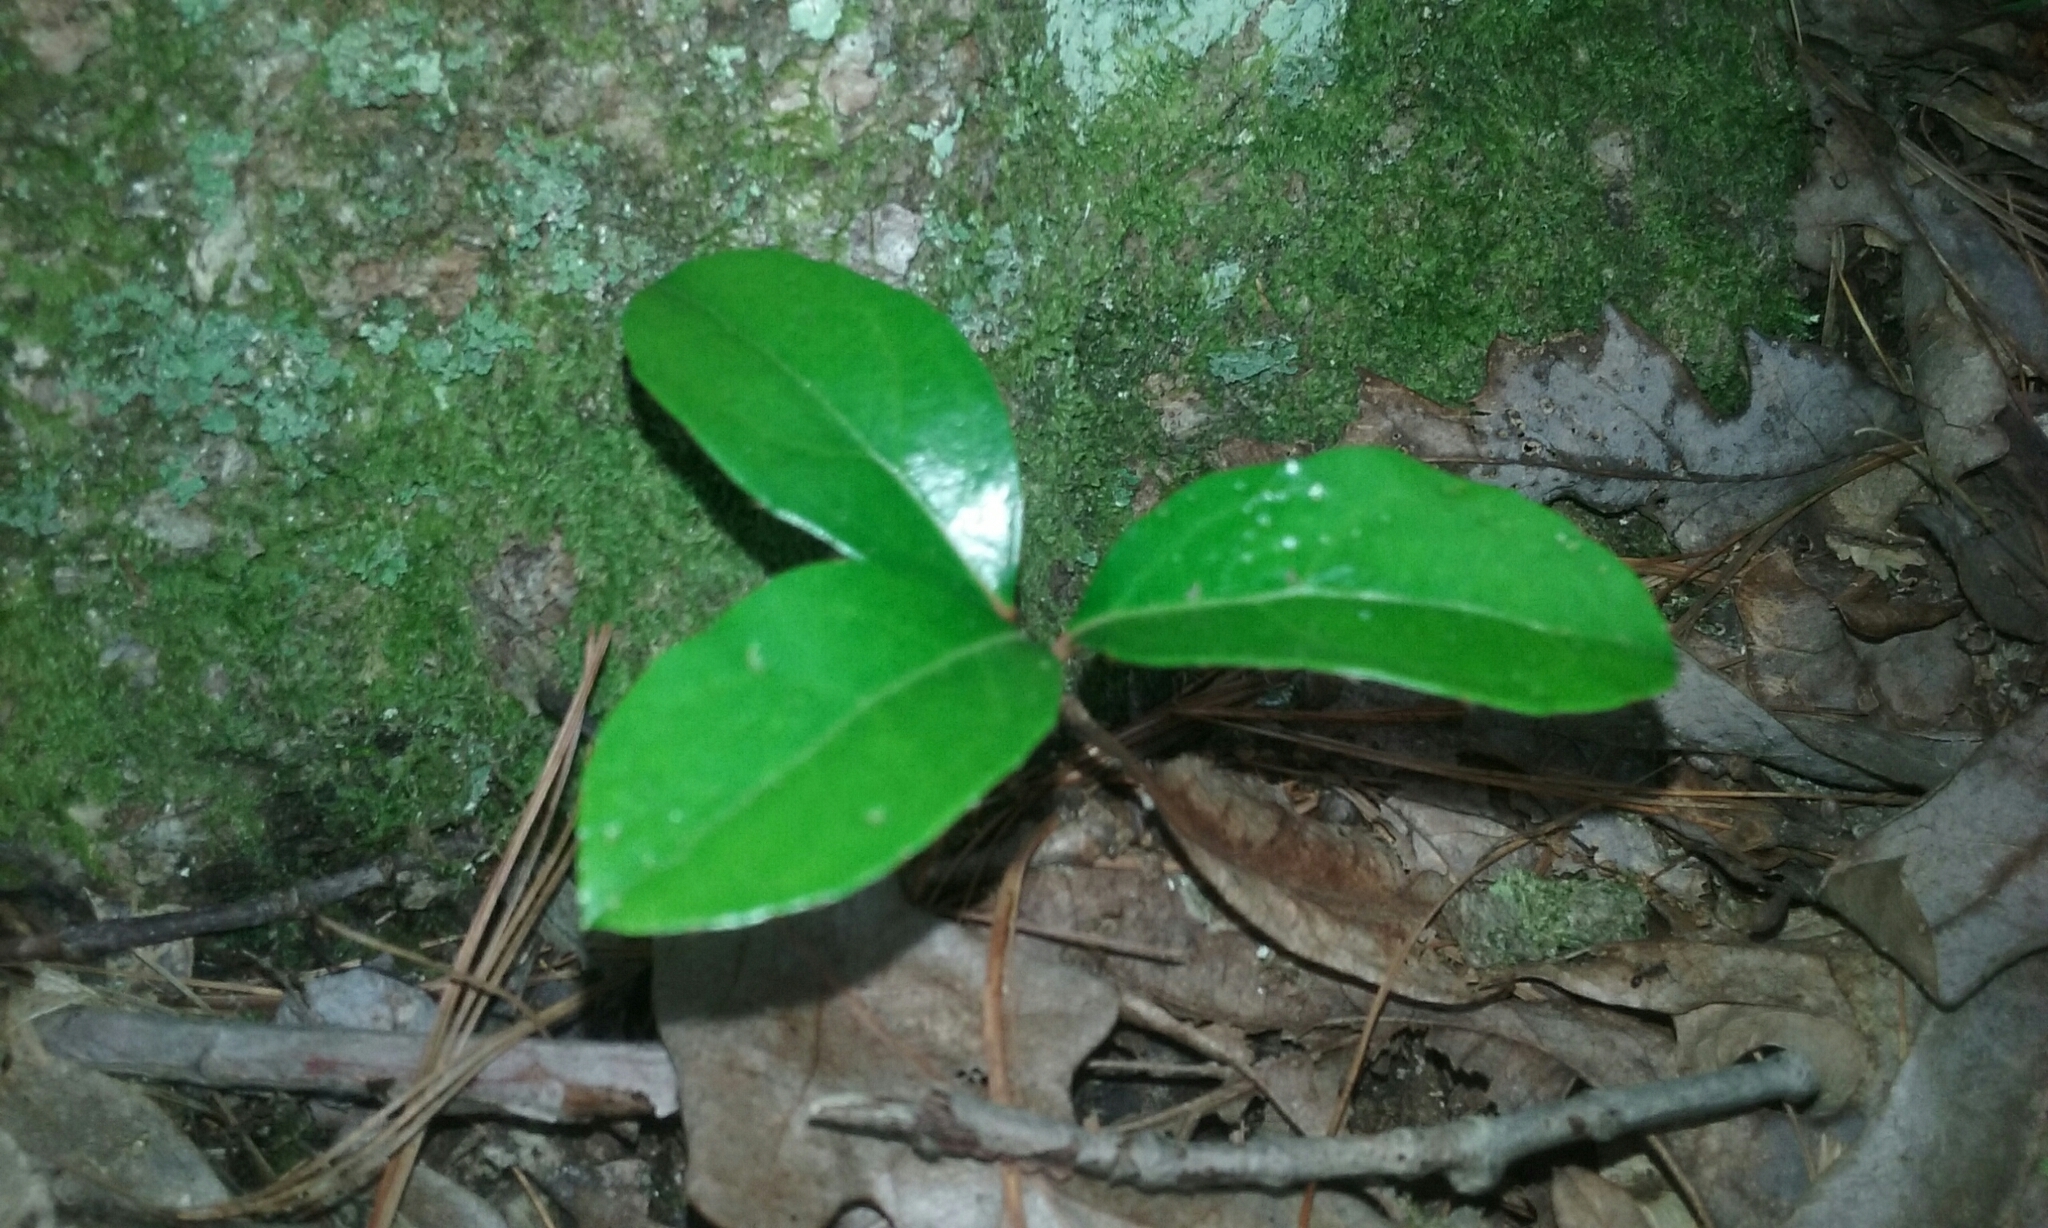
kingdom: Plantae
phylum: Tracheophyta
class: Magnoliopsida
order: Ericales
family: Ericaceae
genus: Gaultheria
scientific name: Gaultheria procumbens
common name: Checkerberry
